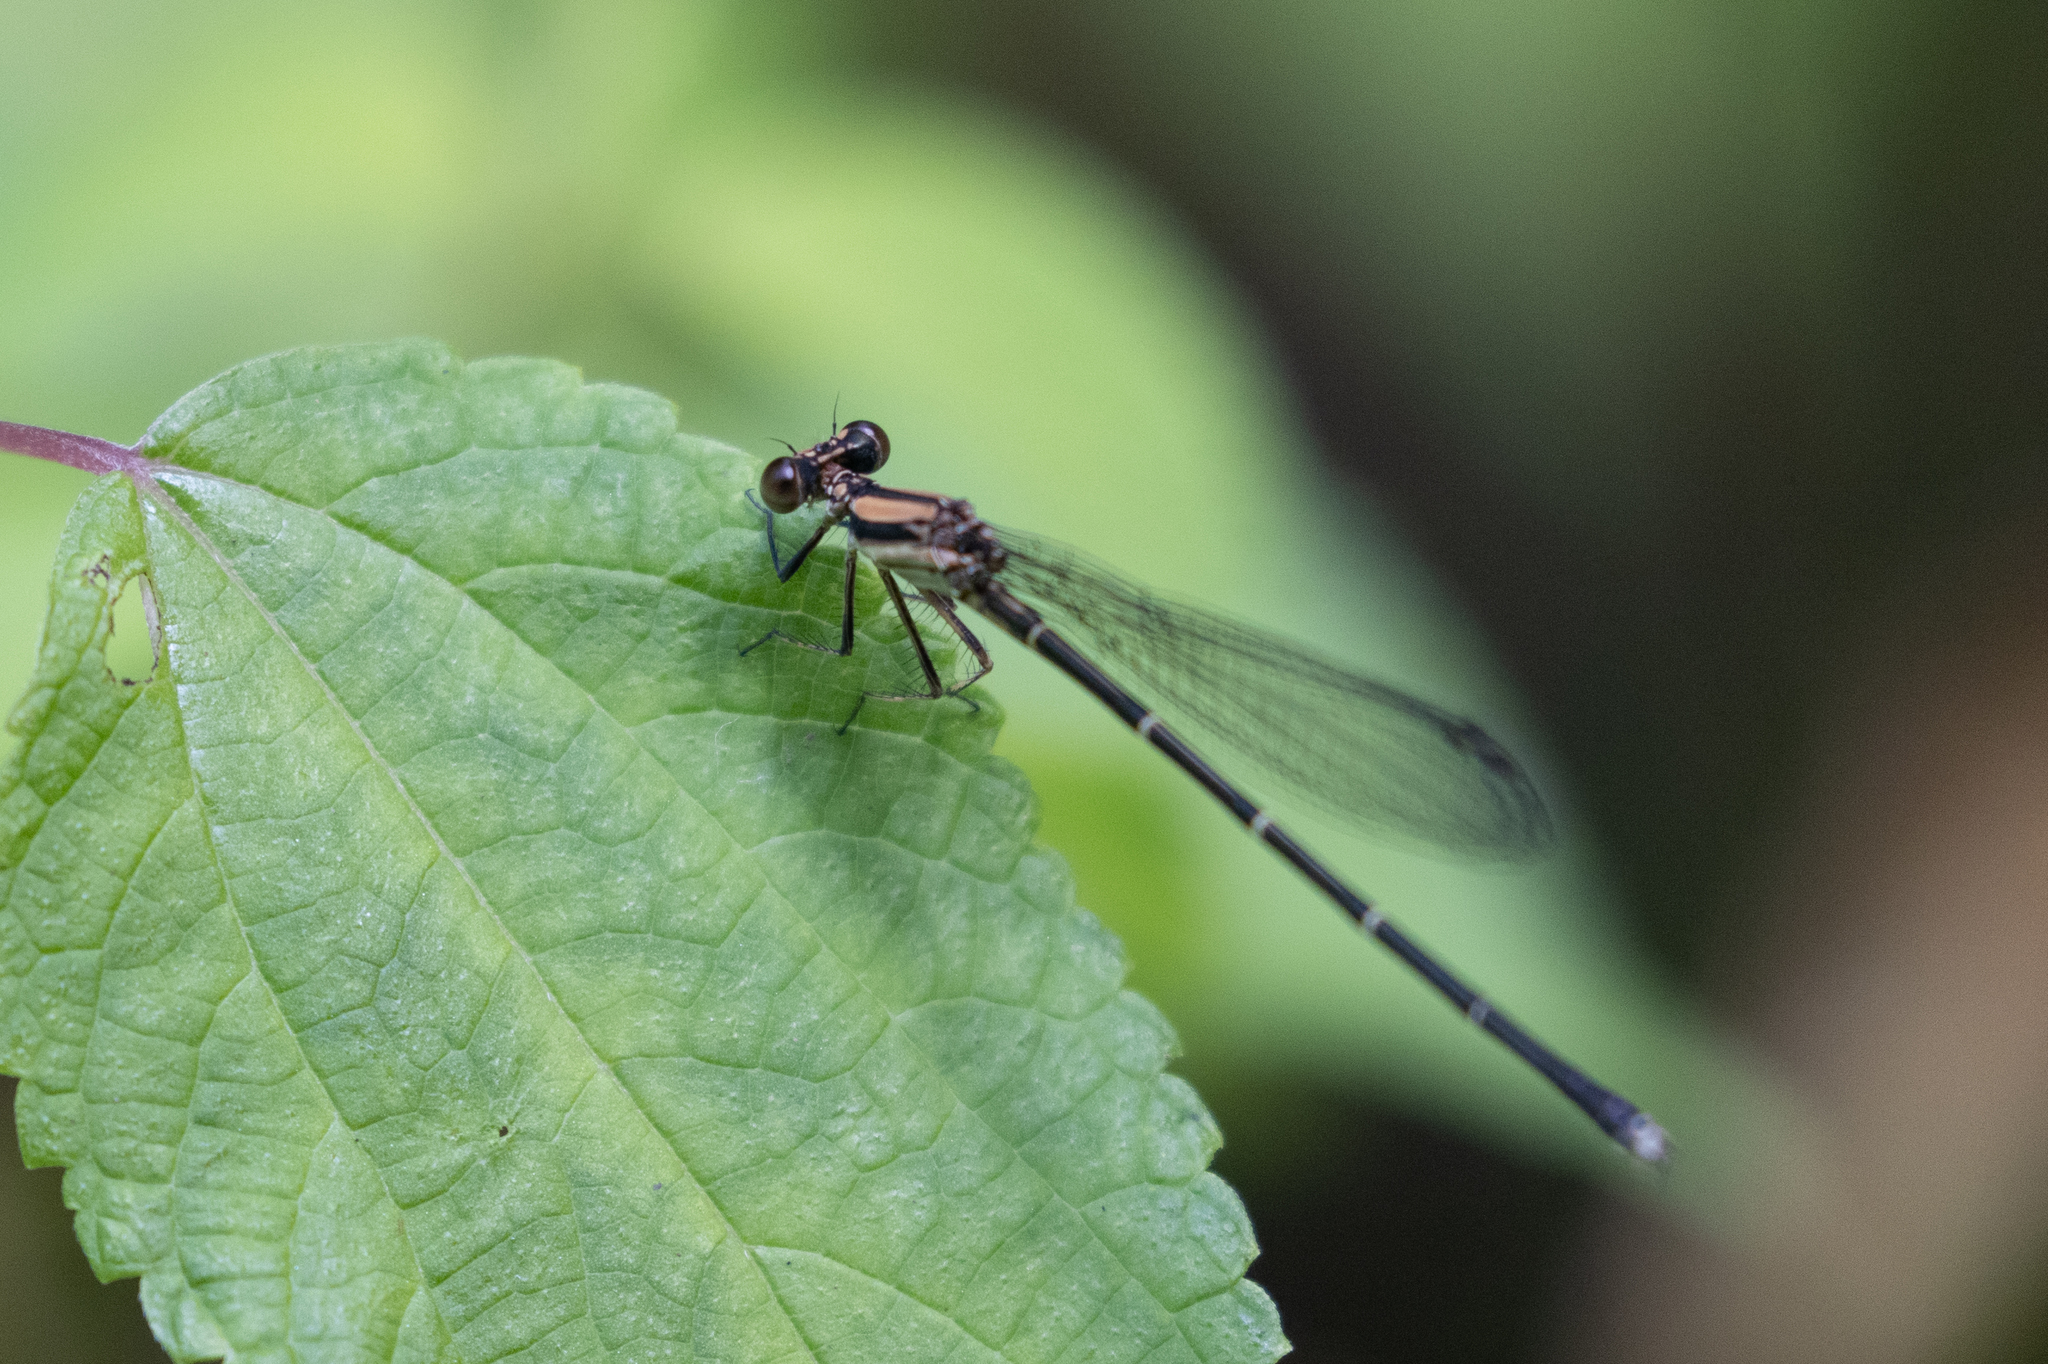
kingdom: Animalia
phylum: Arthropoda
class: Insecta
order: Odonata
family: Coenagrionidae
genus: Argia
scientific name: Argia tibialis
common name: Blue-tipped dancer
